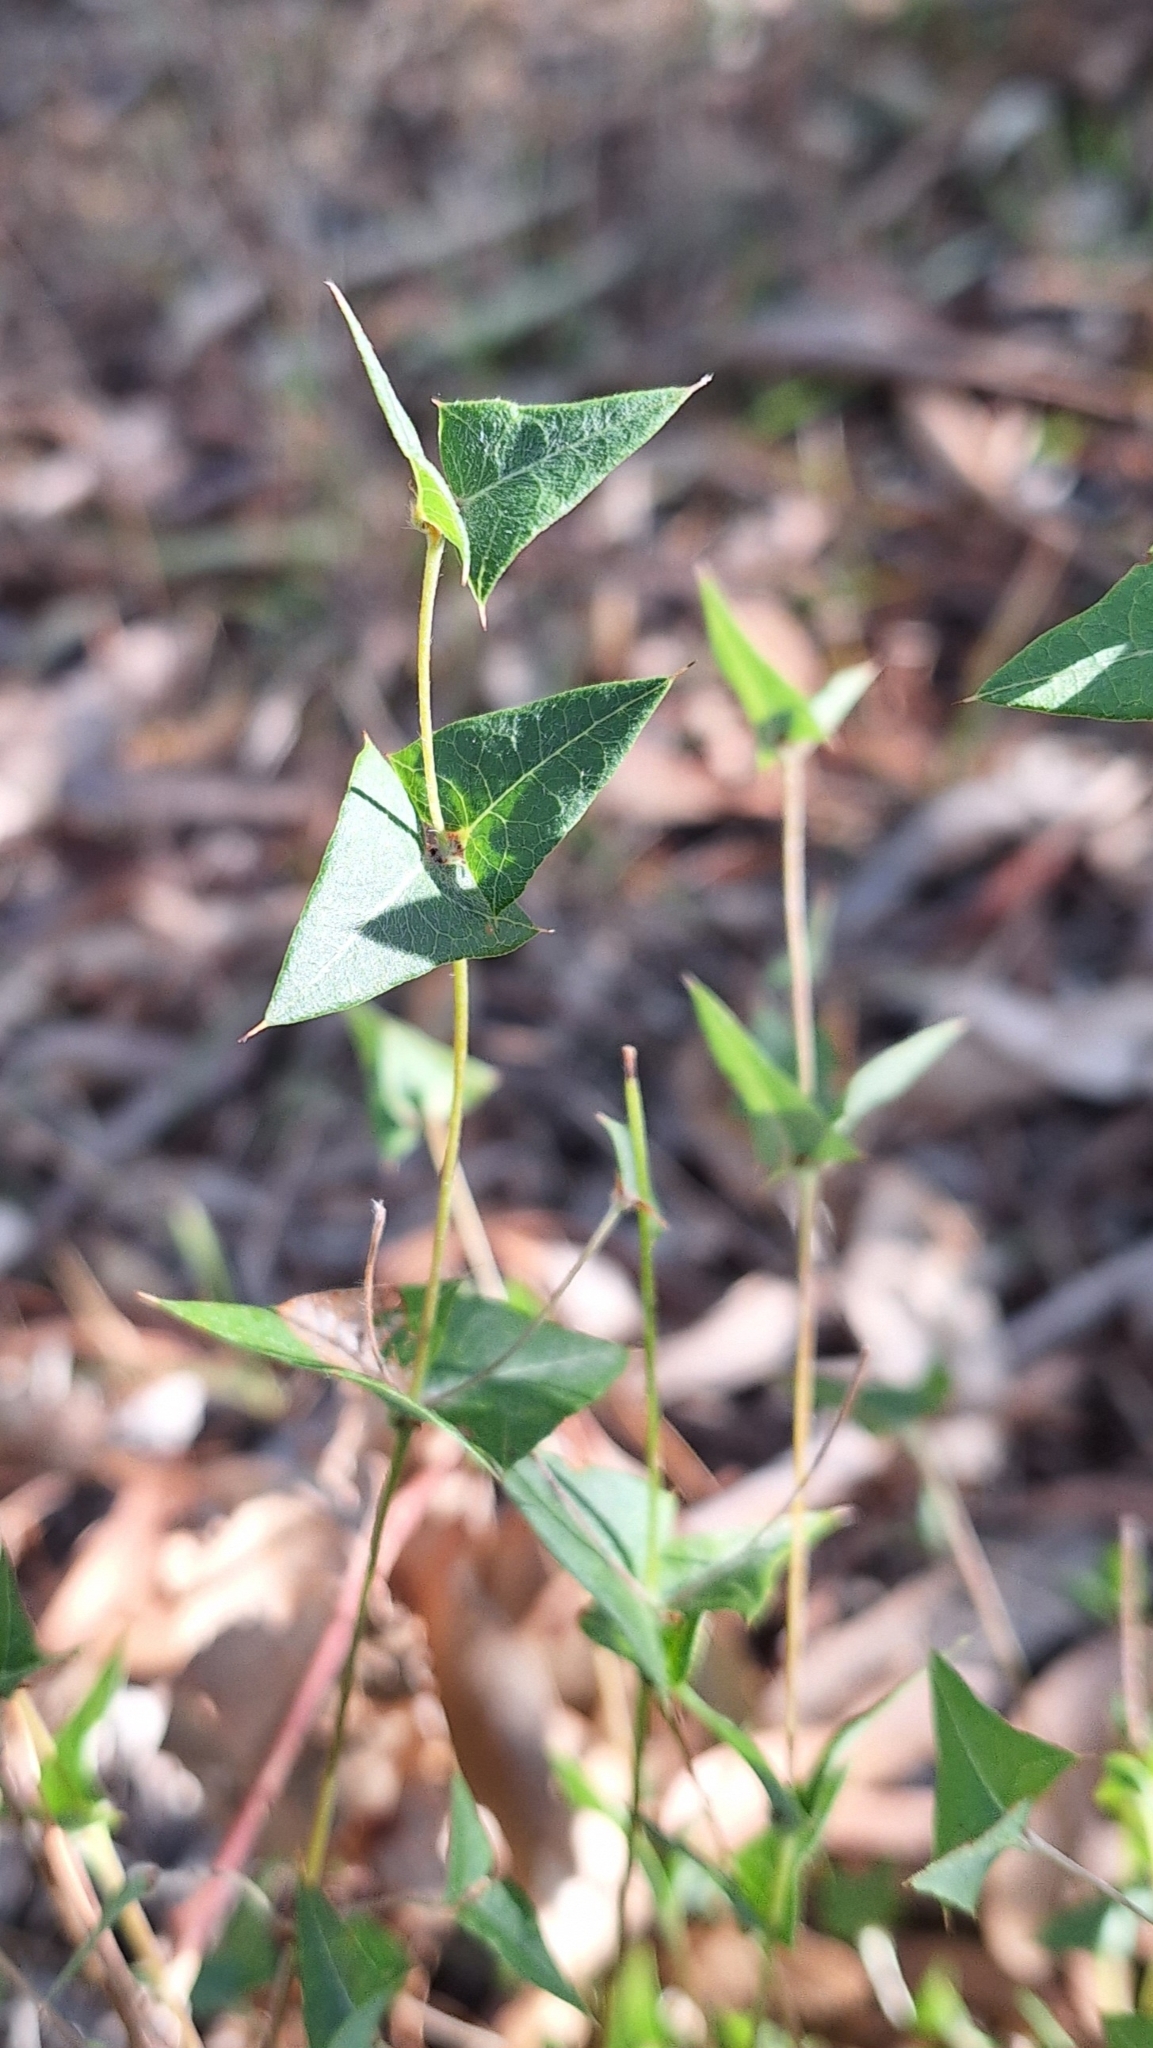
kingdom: Plantae
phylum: Tracheophyta
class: Magnoliopsida
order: Fabales
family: Fabaceae
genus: Platylobium
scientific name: Platylobium obtusangulum
